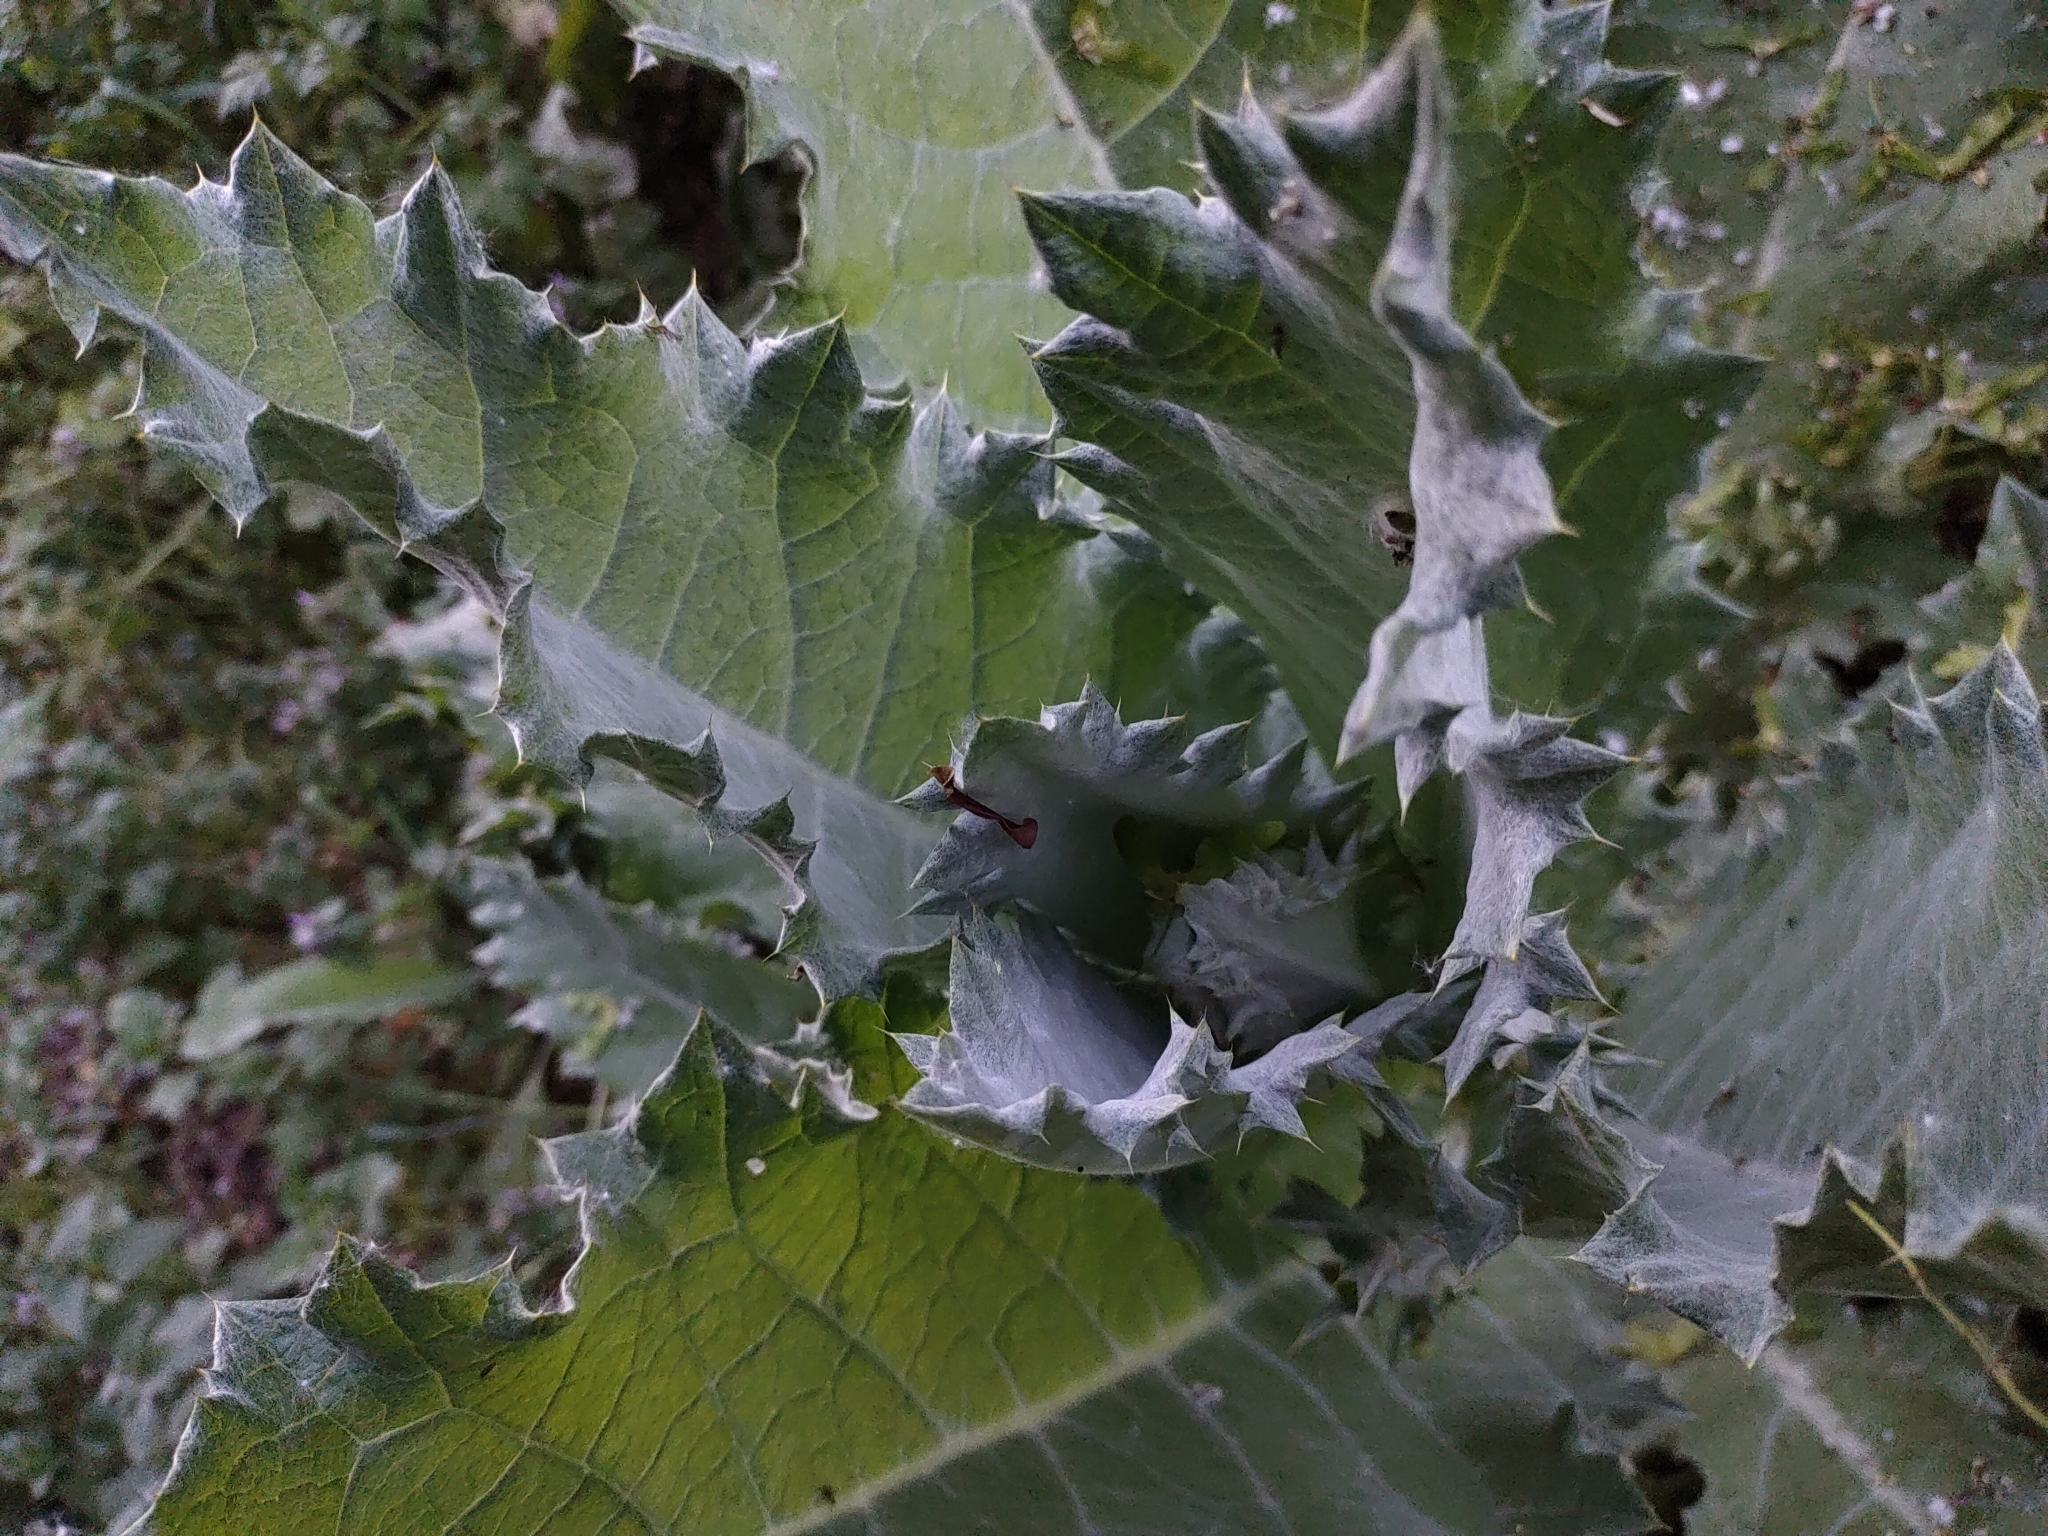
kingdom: Plantae
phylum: Tracheophyta
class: Magnoliopsida
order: Asterales
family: Asteraceae
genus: Onopordum
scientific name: Onopordum acanthium
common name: Scotch thistle
